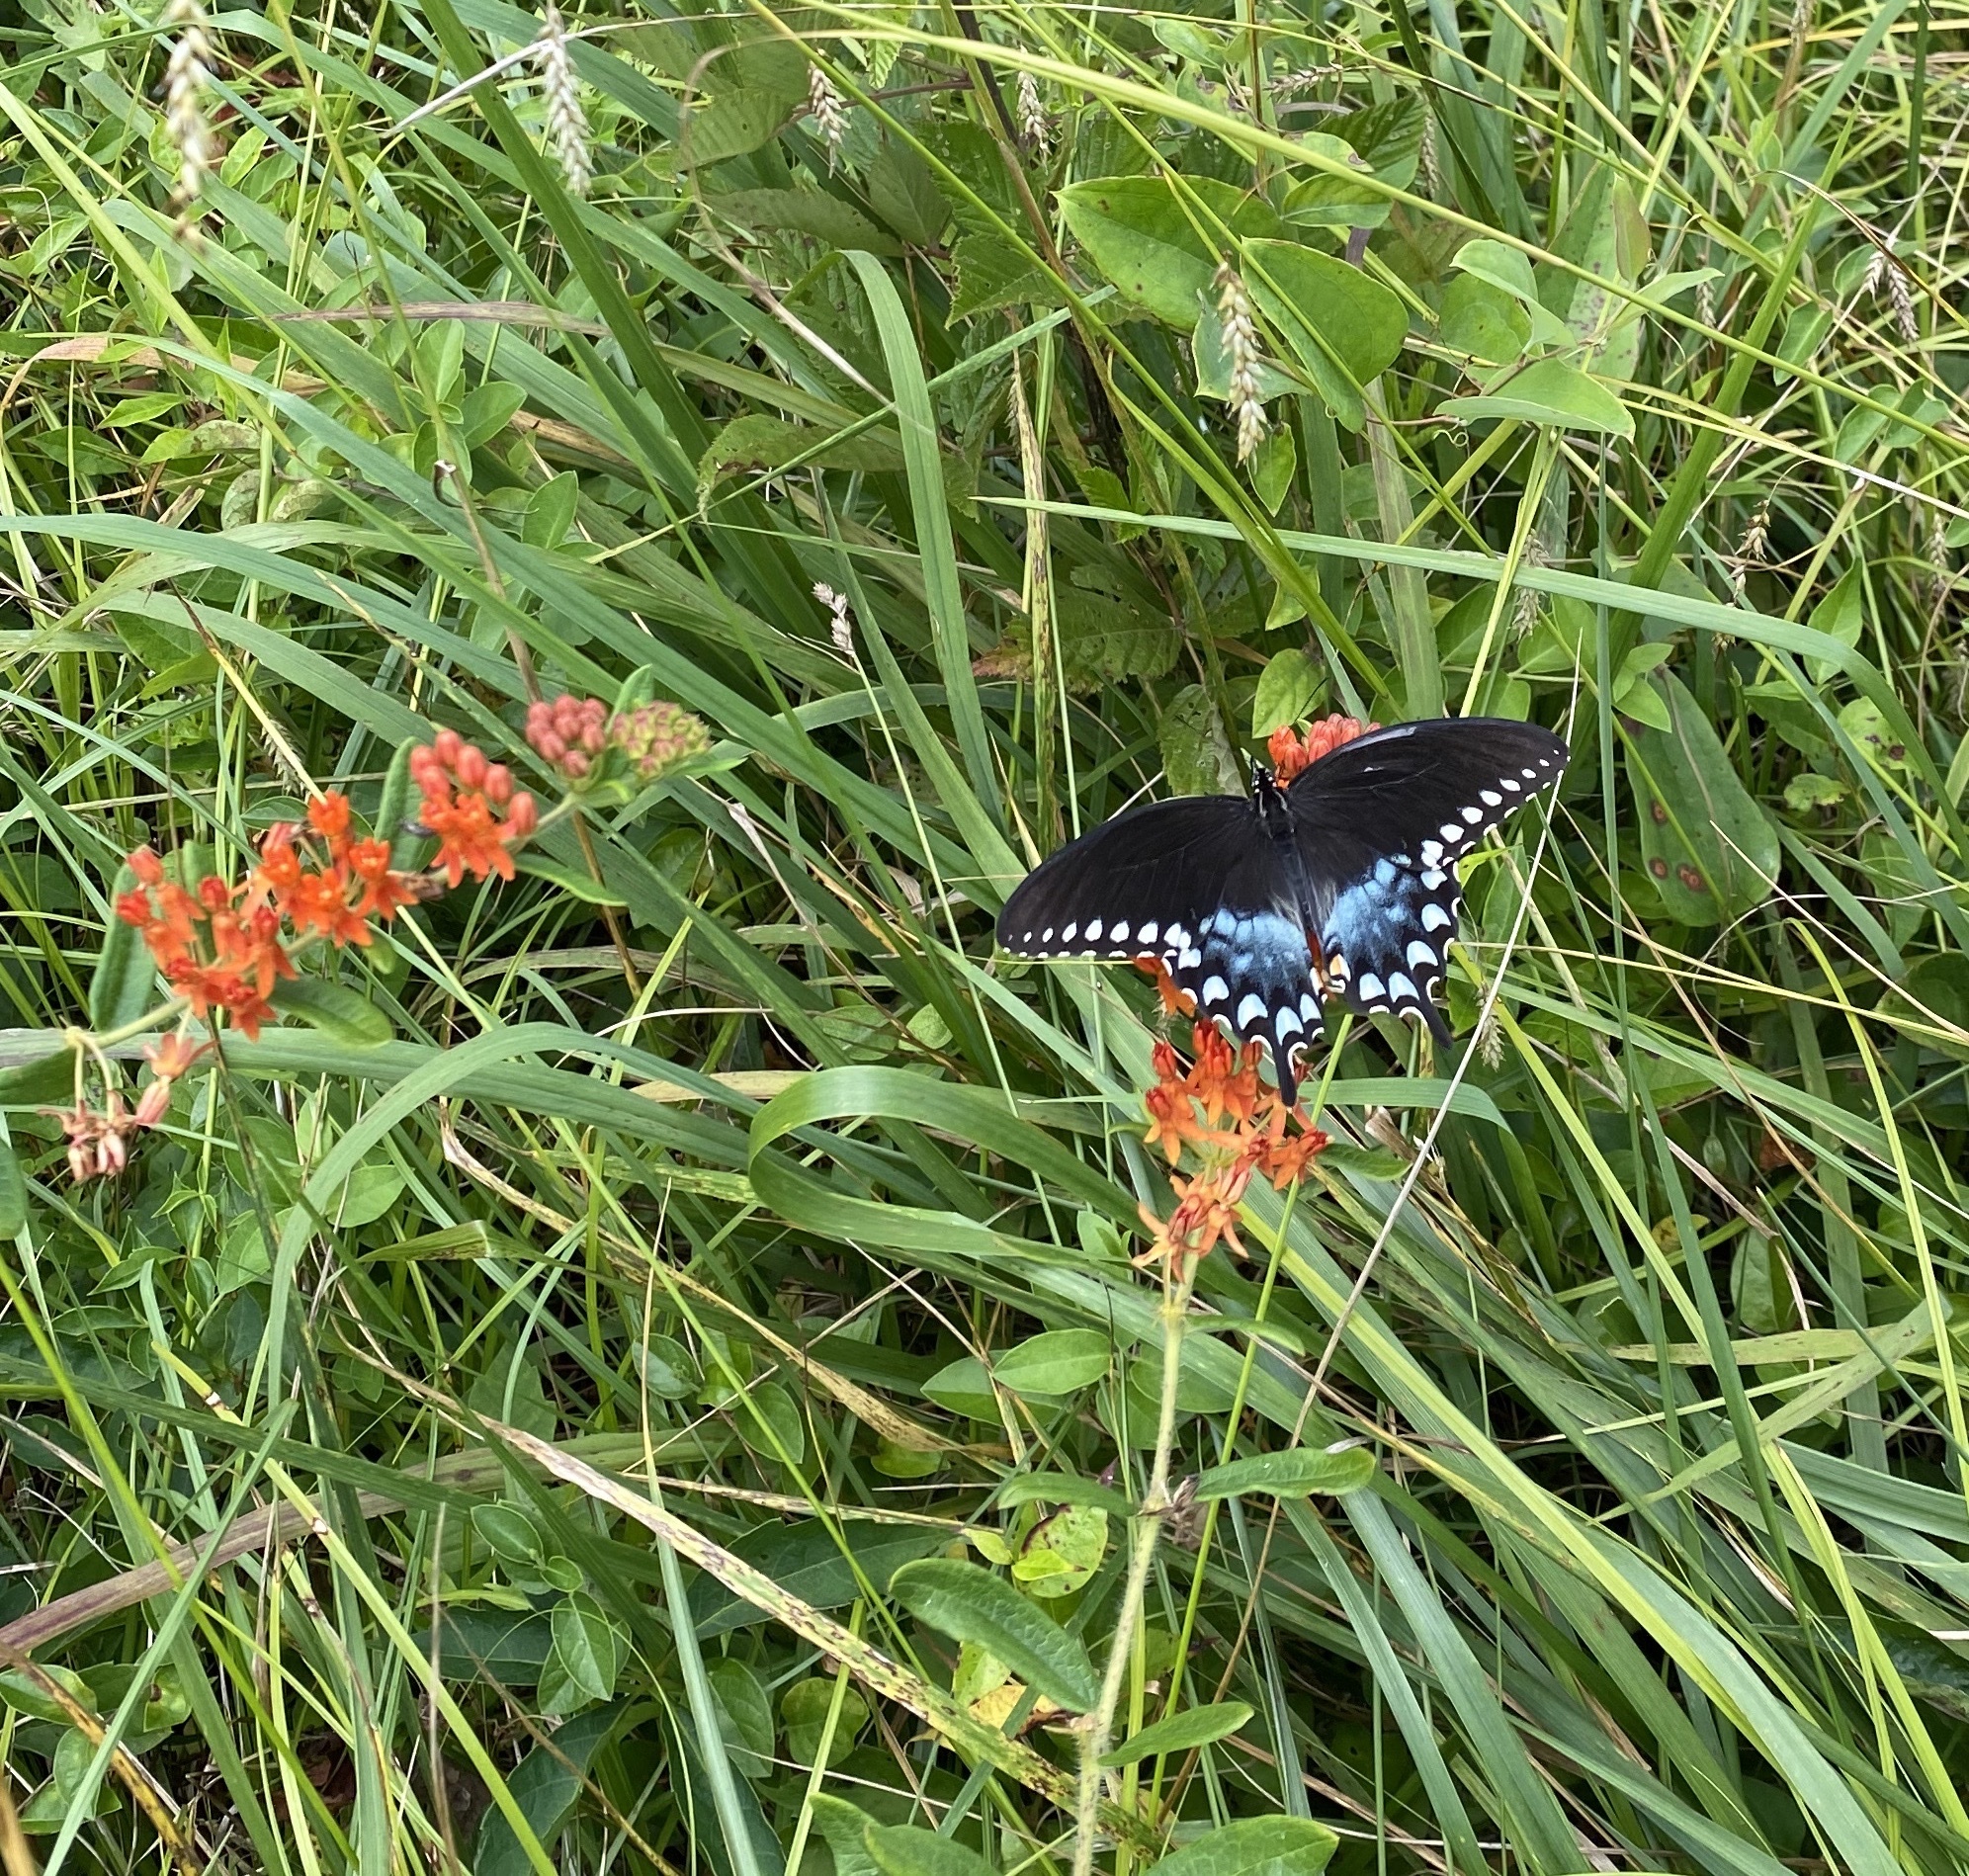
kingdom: Animalia
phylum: Arthropoda
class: Insecta
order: Lepidoptera
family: Papilionidae
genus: Papilio
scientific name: Papilio troilus
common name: Spicebush swallowtail
